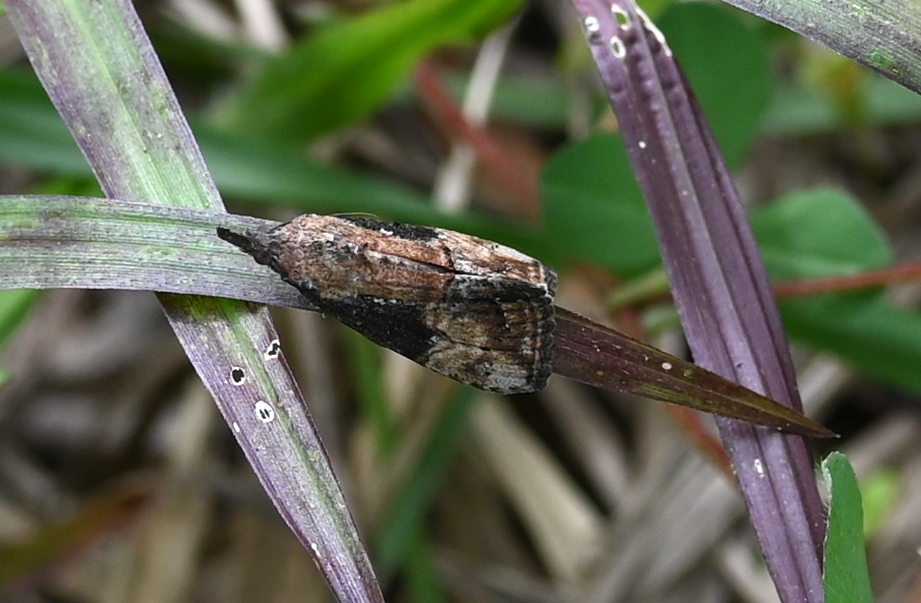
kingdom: Animalia
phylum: Arthropoda
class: Insecta
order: Lepidoptera
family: Erebidae
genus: Hypena
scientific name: Hypena scabra
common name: Green cloverworm
